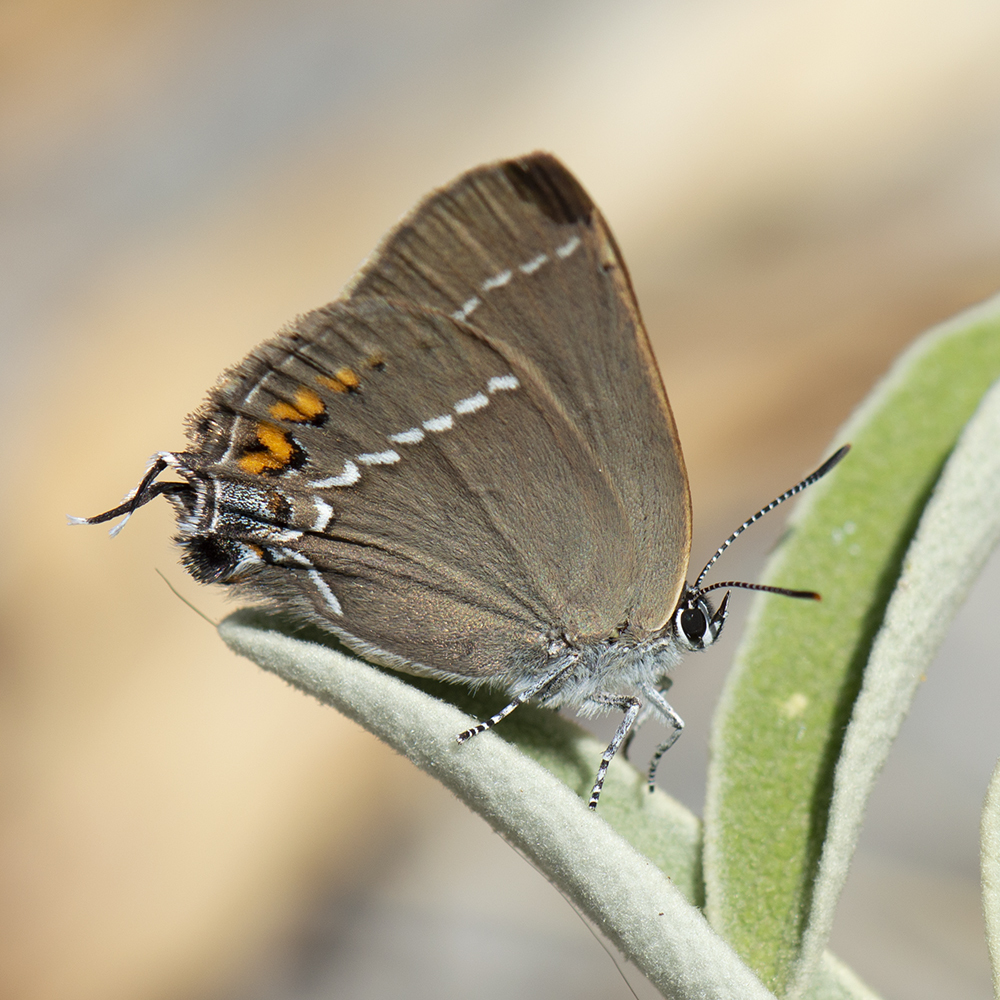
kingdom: Animalia
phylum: Arthropoda
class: Insecta
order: Lepidoptera
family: Lycaenidae
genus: Tuttiola
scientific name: Tuttiola spini
